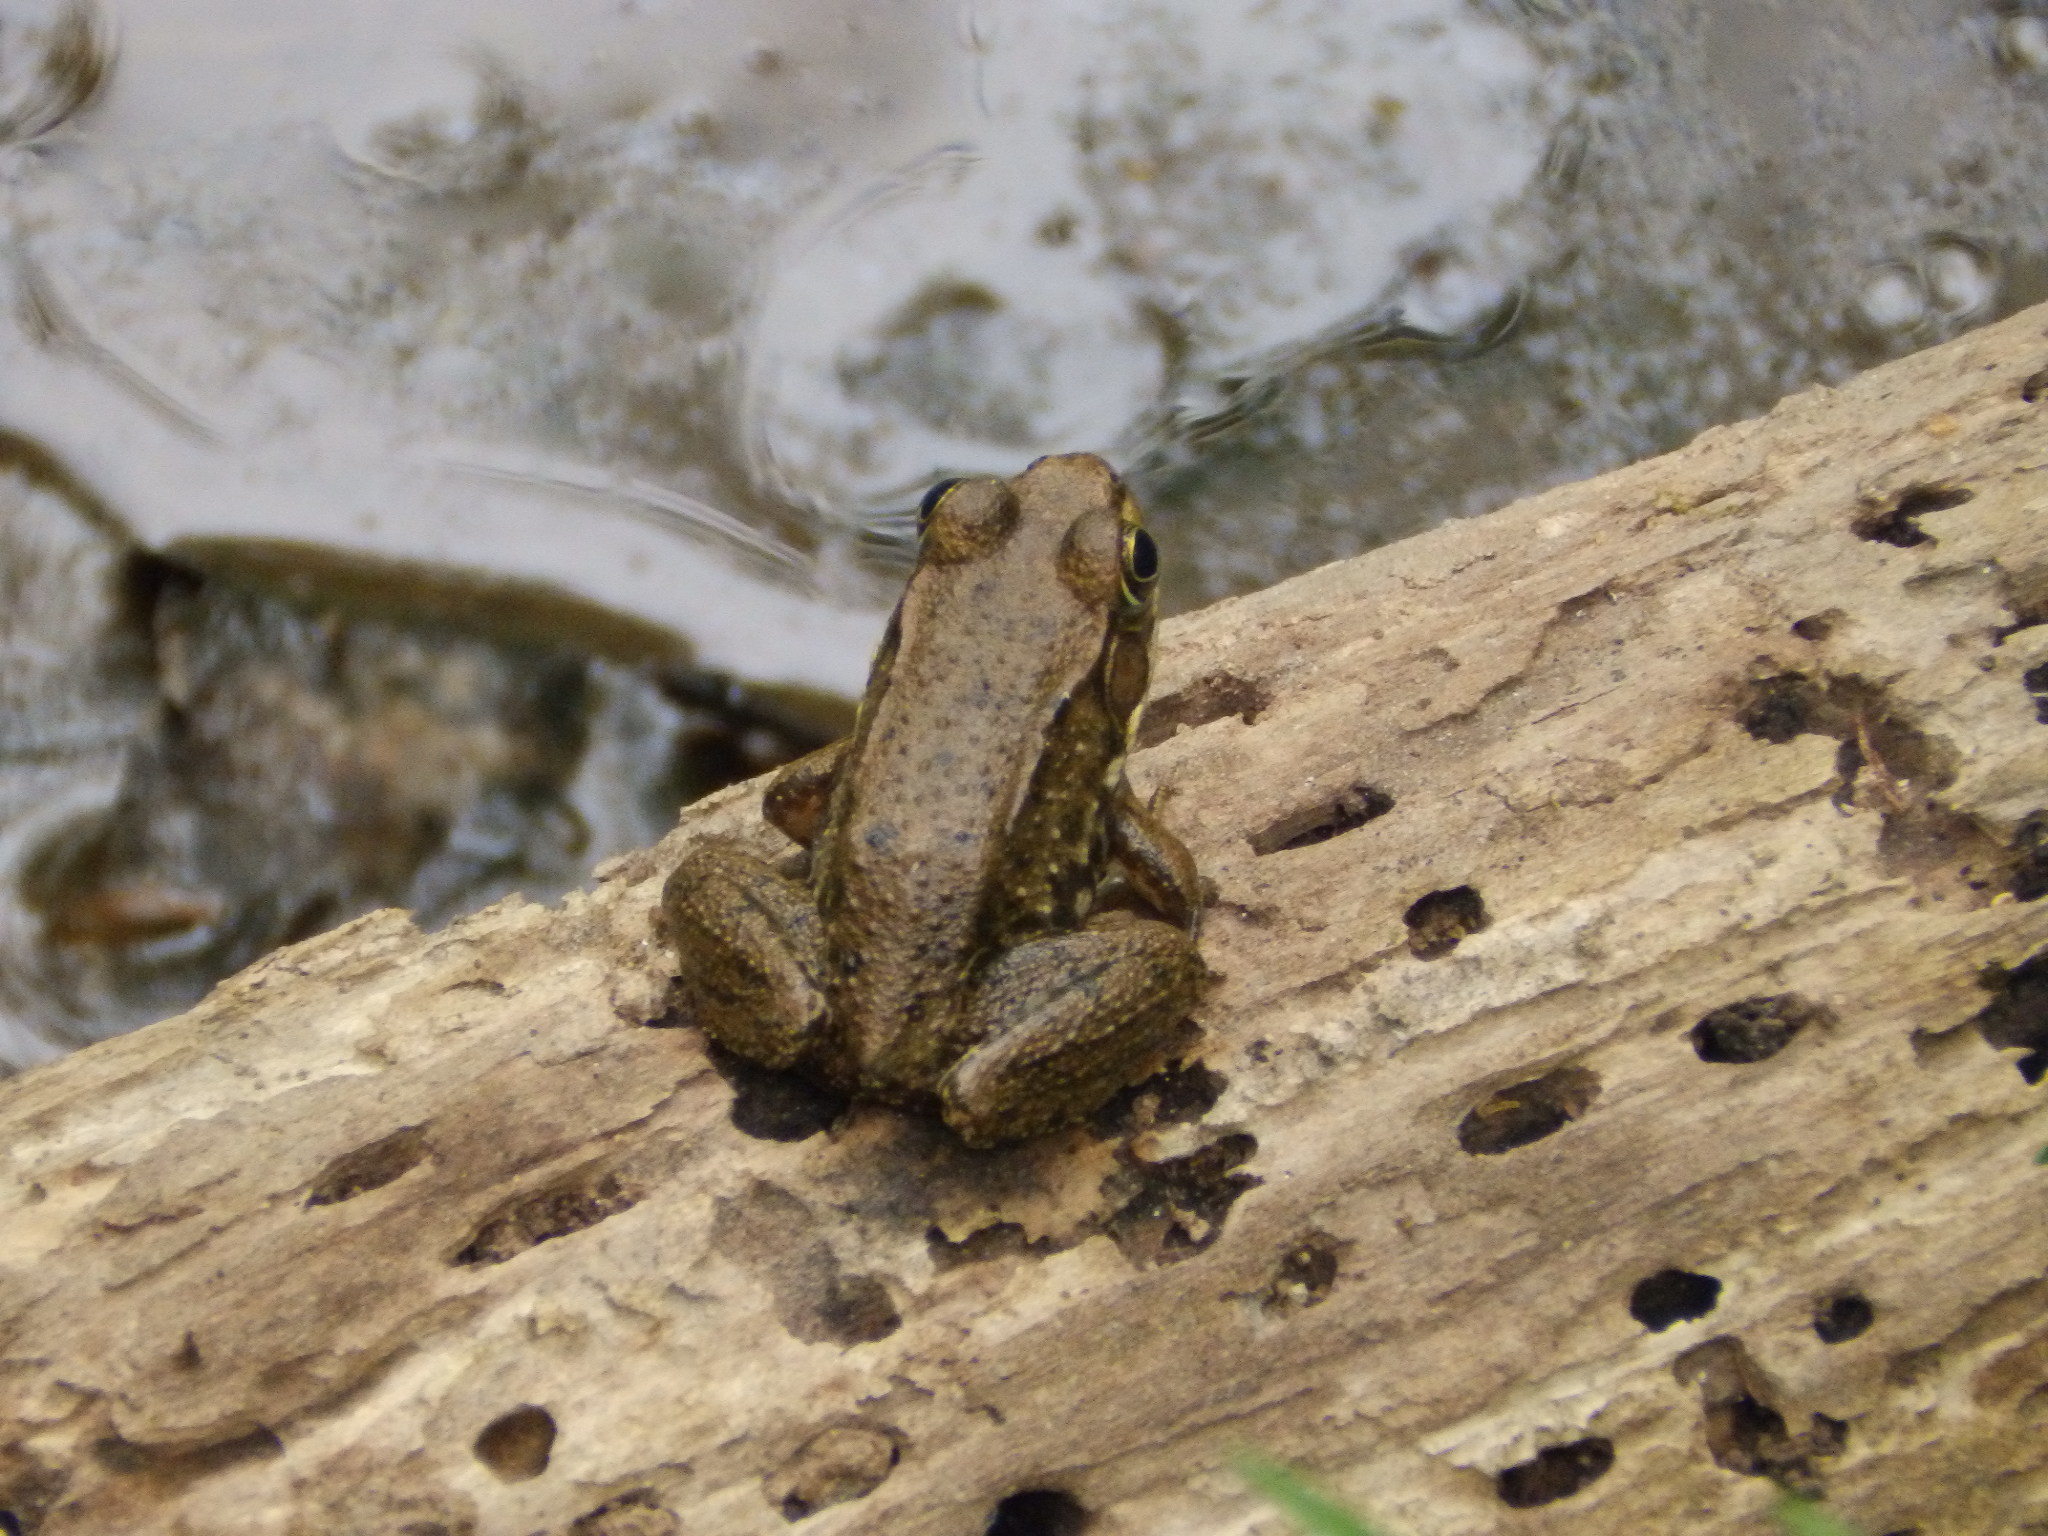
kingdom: Animalia
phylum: Chordata
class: Amphibia
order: Anura
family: Ranidae
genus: Lithobates
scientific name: Lithobates clamitans
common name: Green frog
